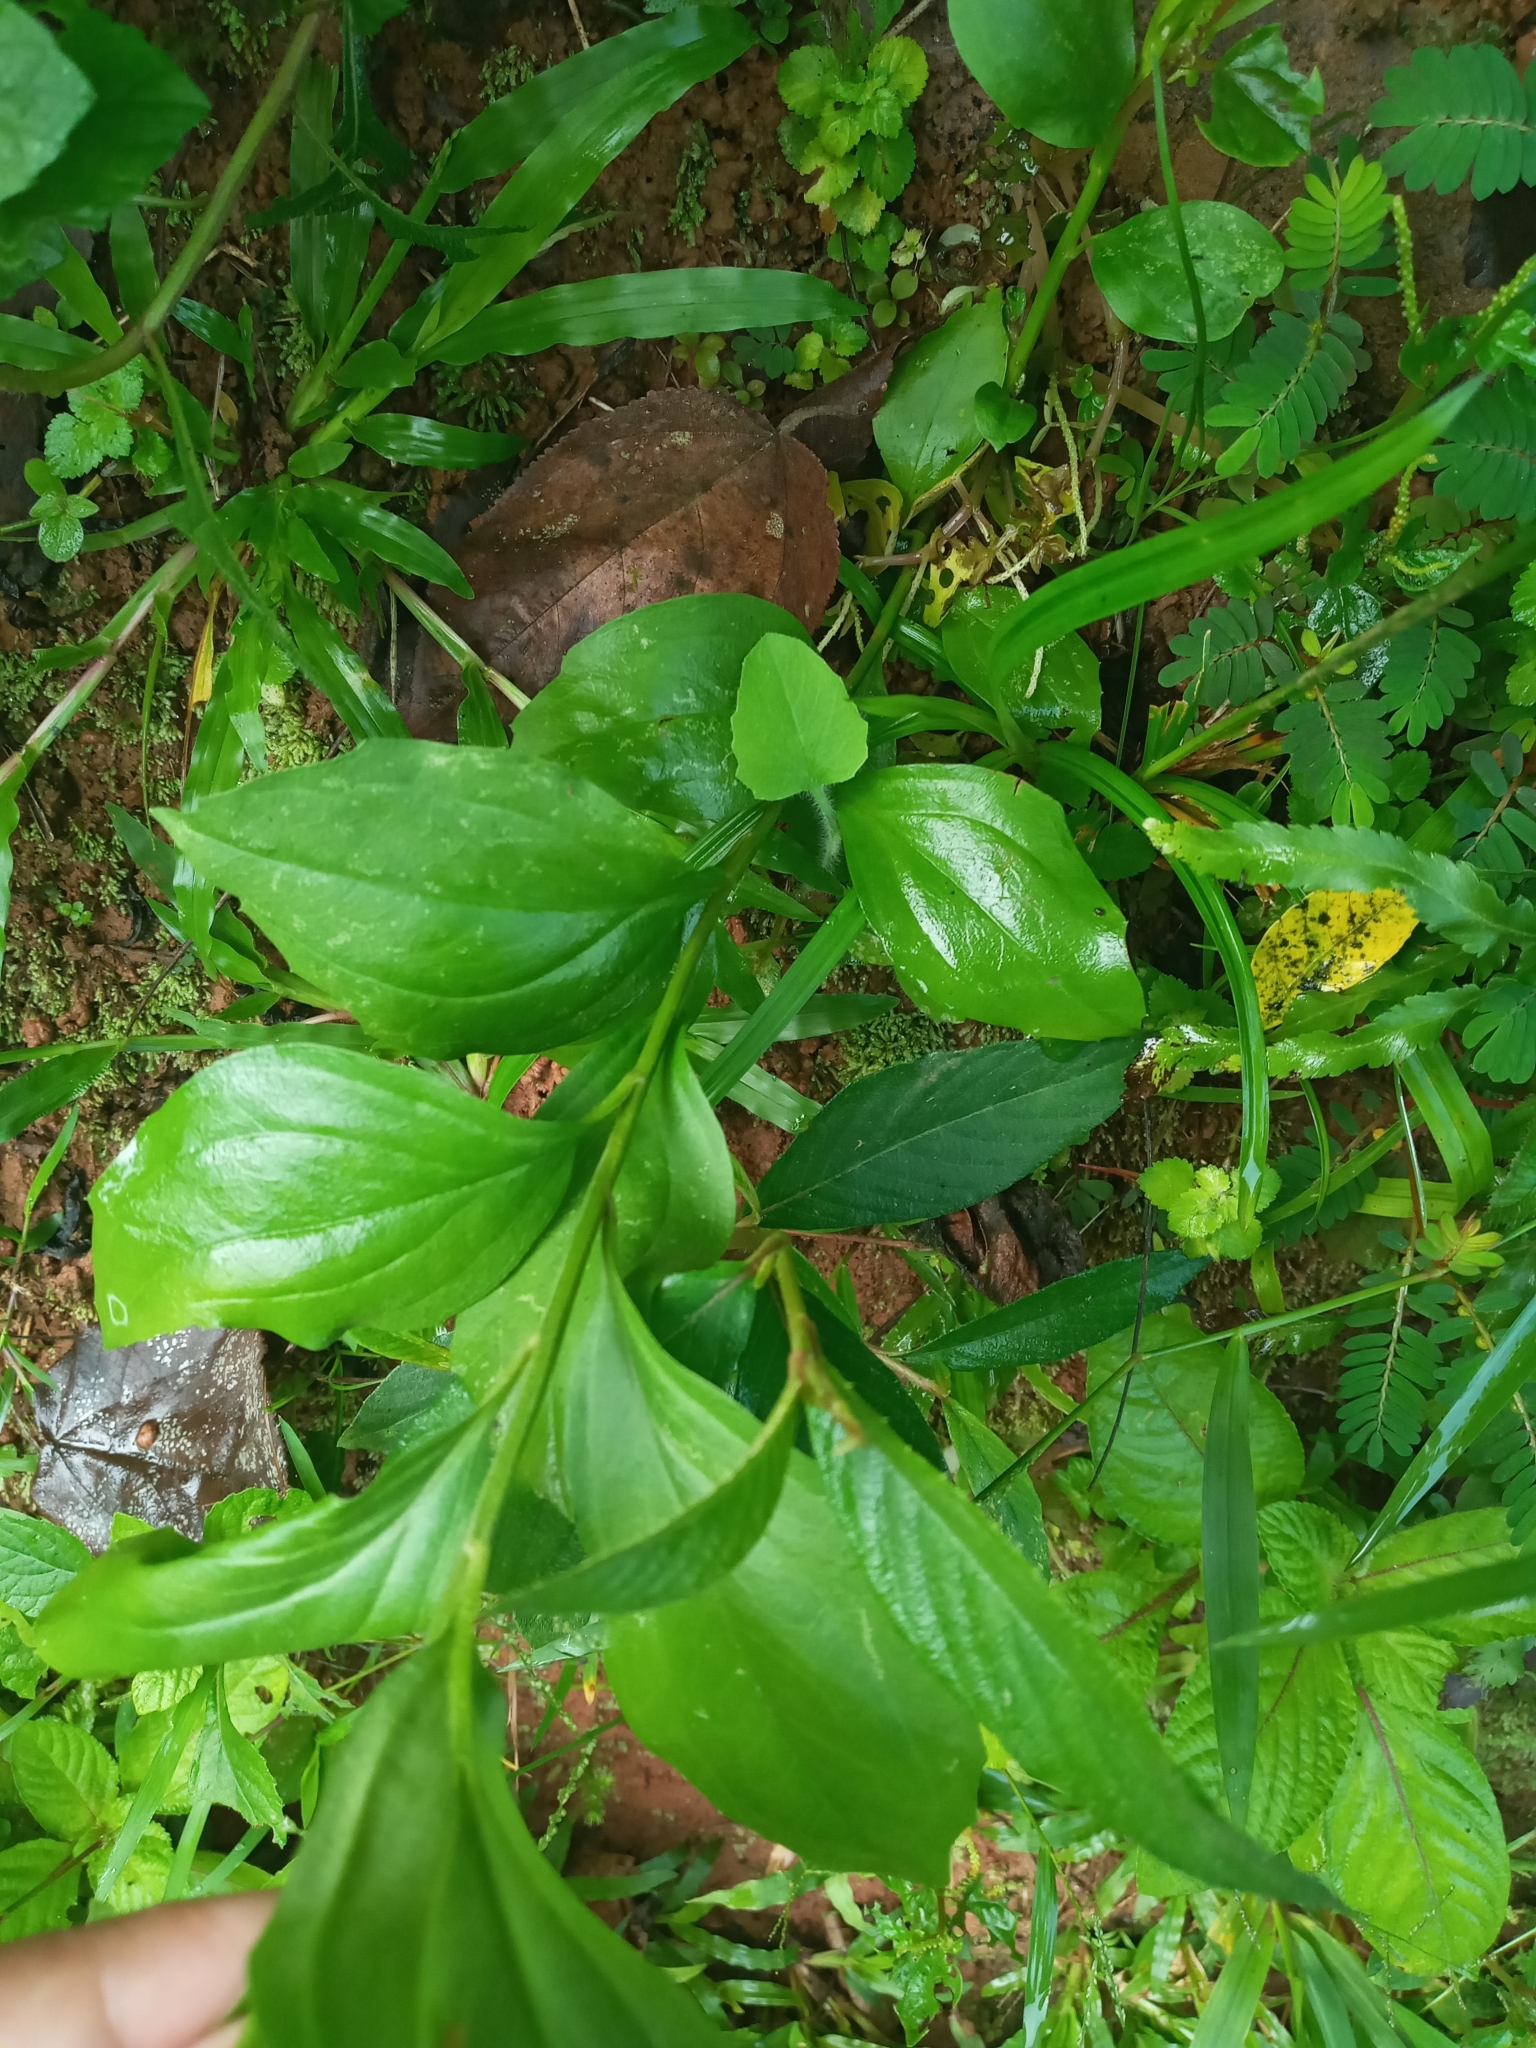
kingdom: Plantae
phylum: Tracheophyta
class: Magnoliopsida
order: Asterales
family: Asteraceae
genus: Zinnia
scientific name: Zinnia elegans
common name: Youth-and-age
